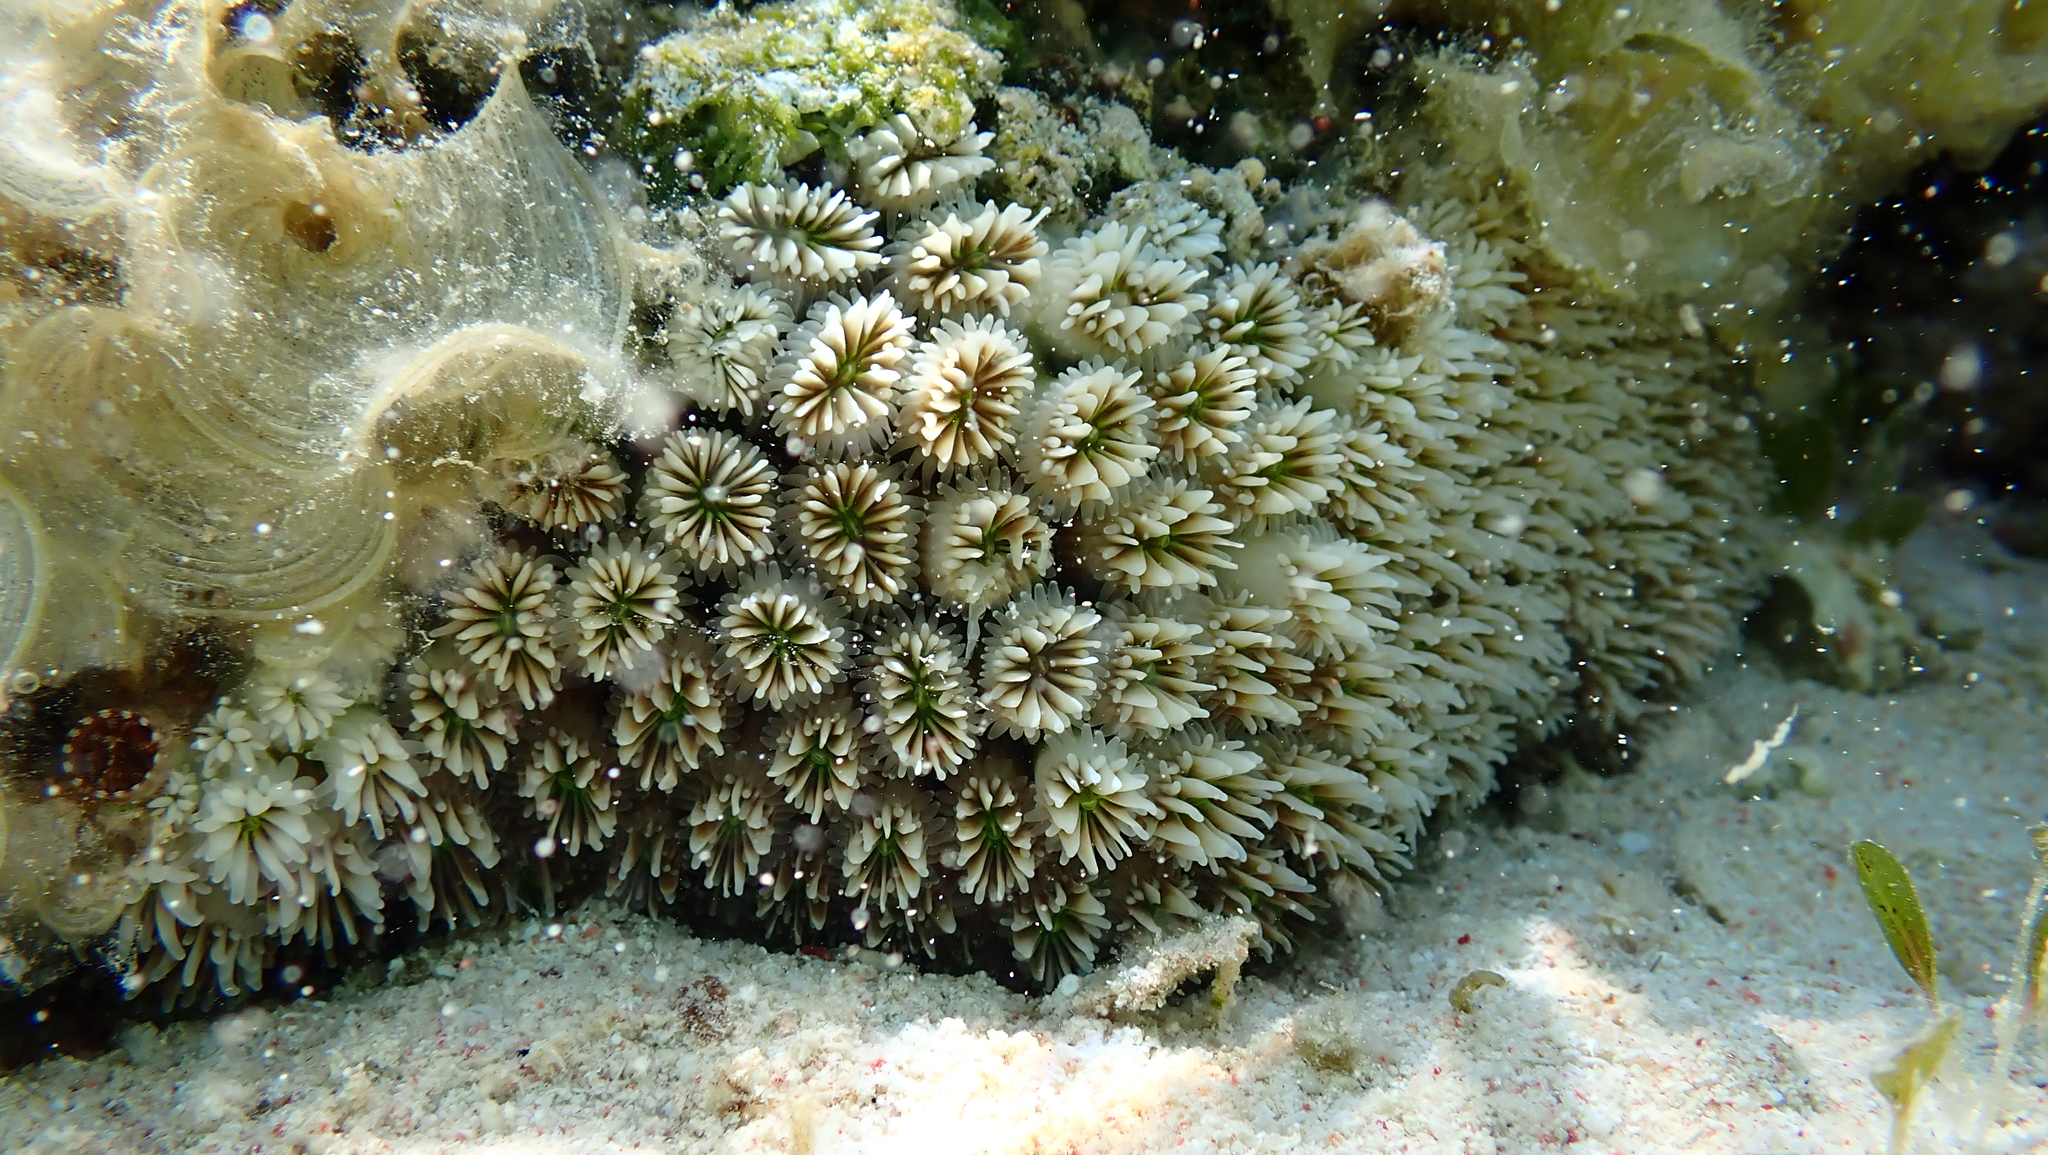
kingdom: Animalia
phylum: Cnidaria
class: Anthozoa
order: Scleractinia
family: Euphylliidae
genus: Galaxea
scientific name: Galaxea fascicularis
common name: Octopus coral
